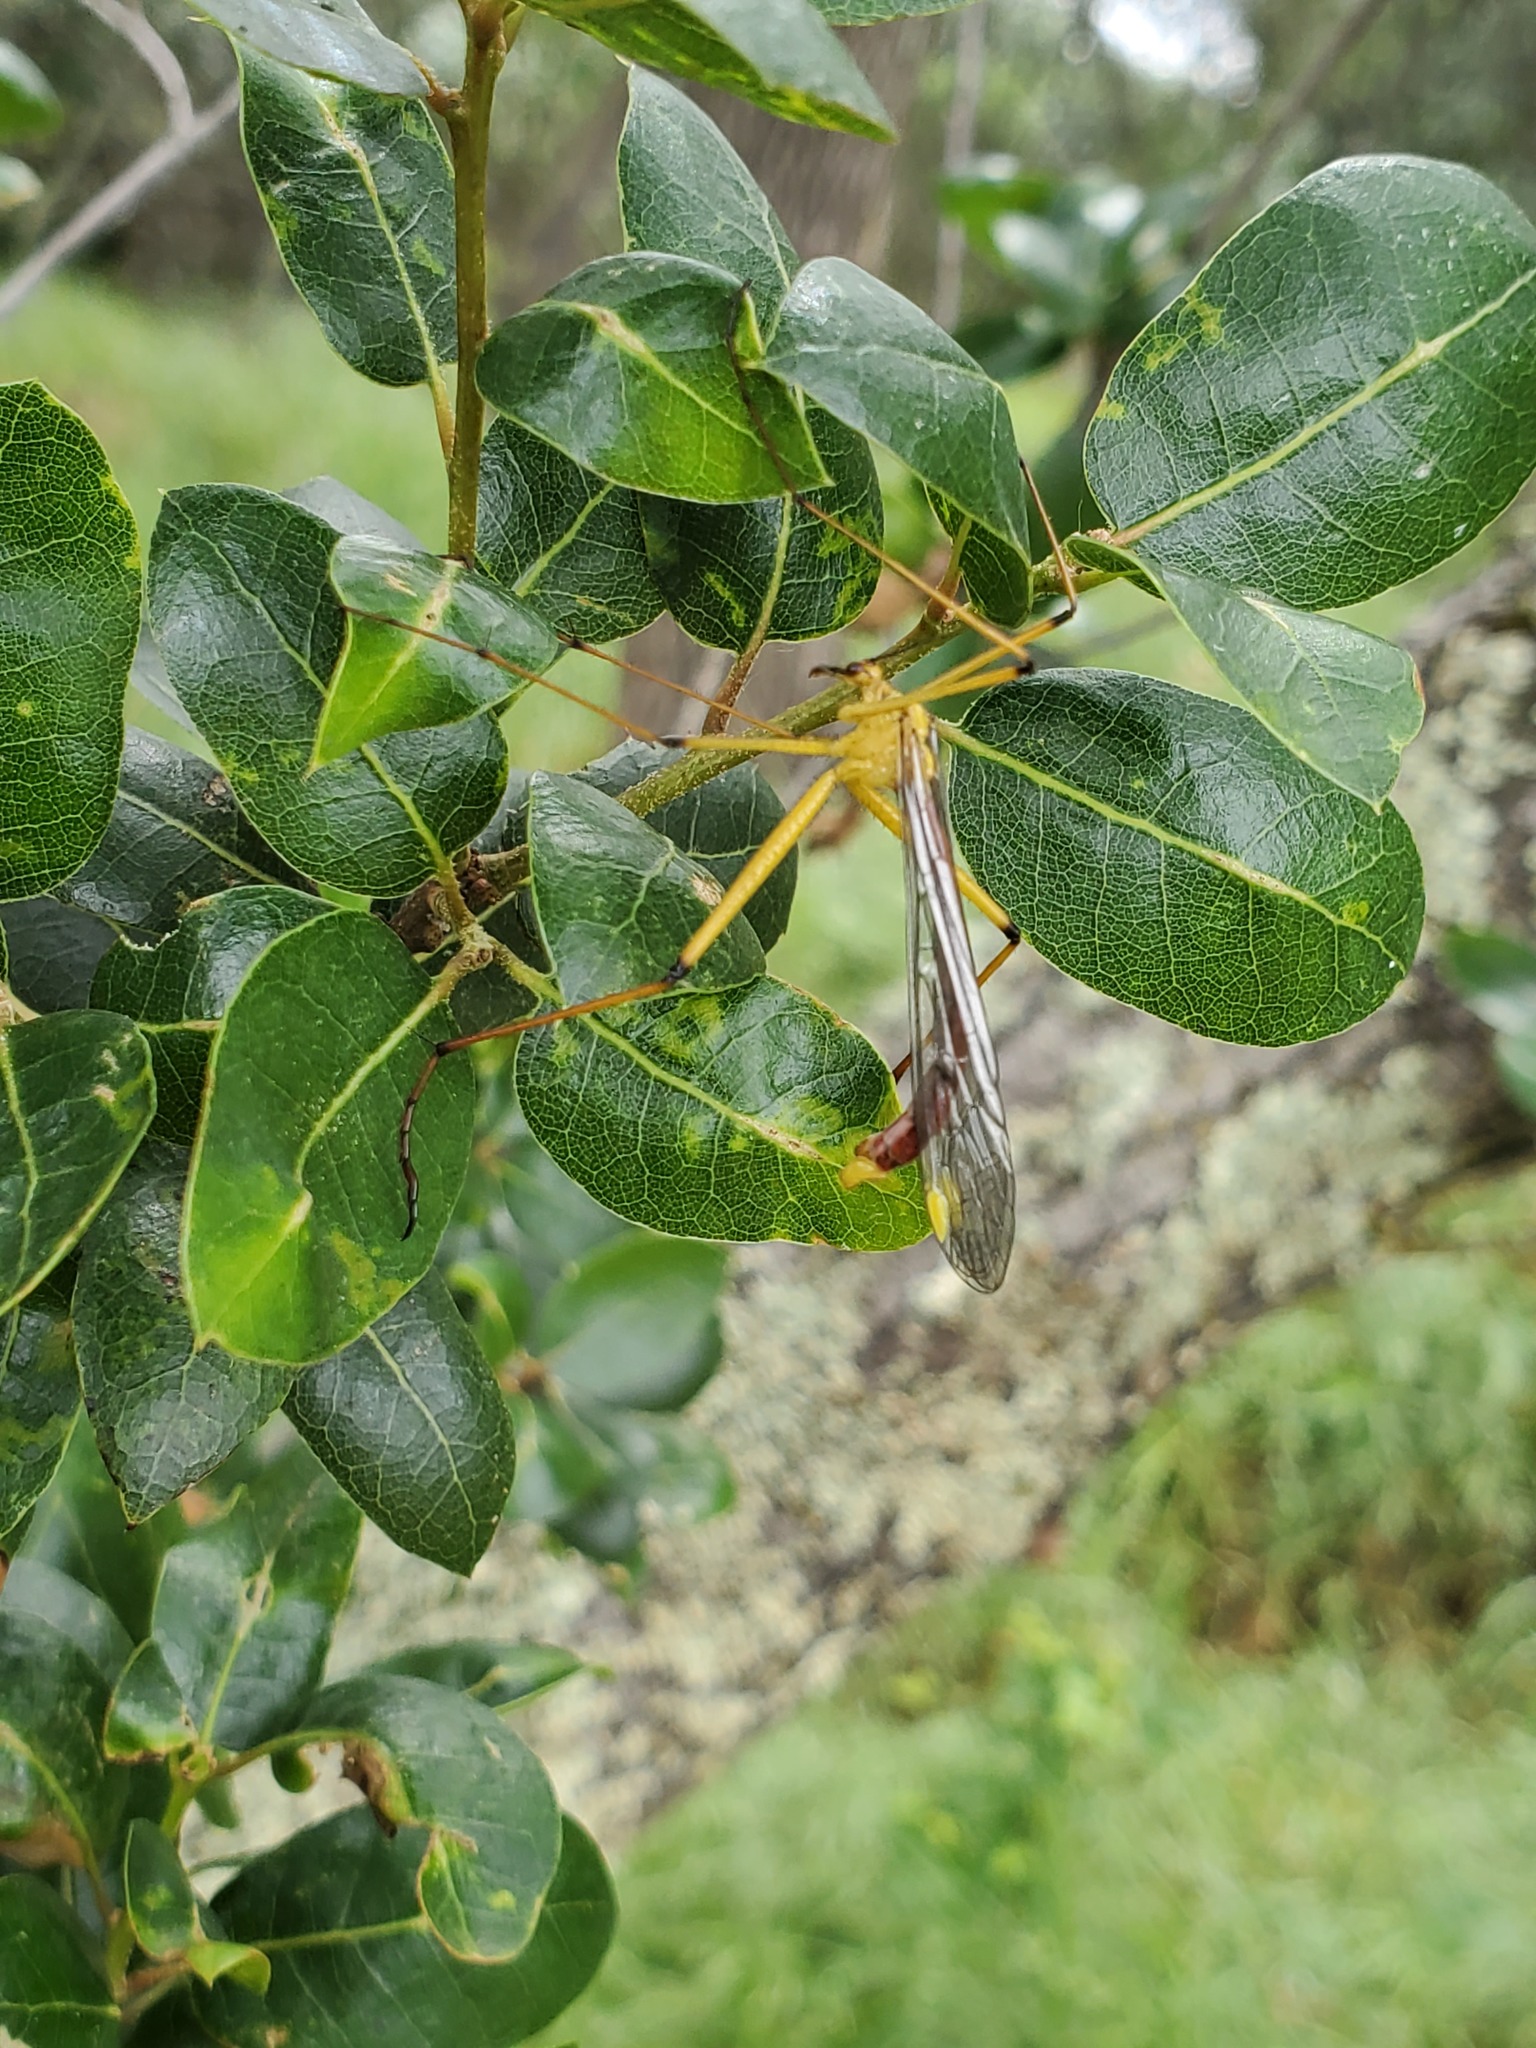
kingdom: Animalia
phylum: Arthropoda
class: Insecta
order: Mecoptera
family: Bittacidae
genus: Bittacus
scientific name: Bittacus chlorostigma
